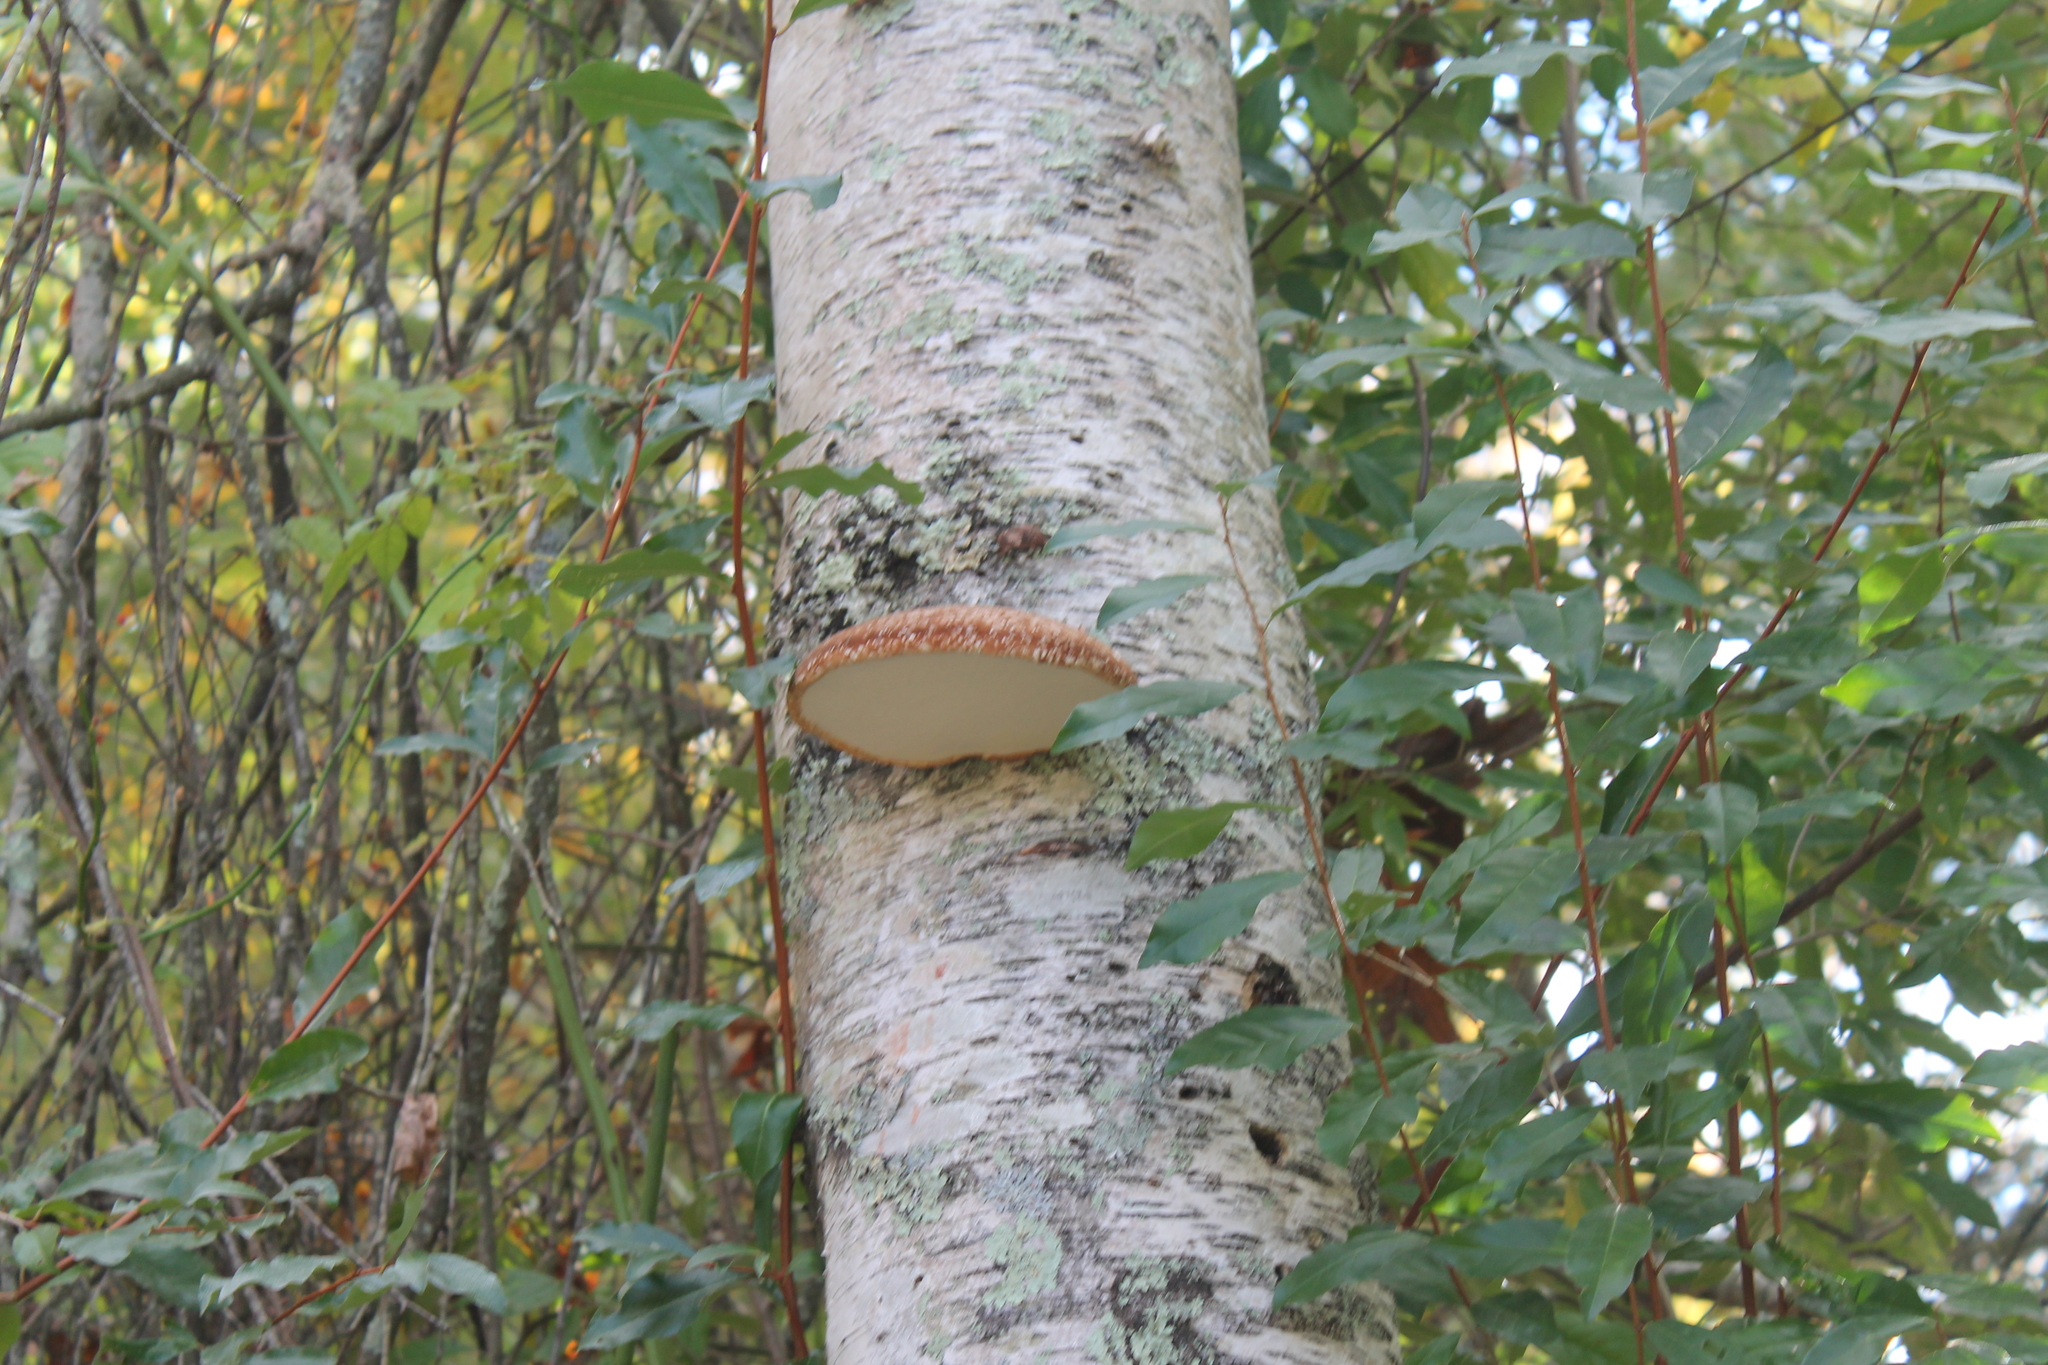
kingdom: Fungi
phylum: Basidiomycota
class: Agaricomycetes
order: Polyporales
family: Fomitopsidaceae
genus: Fomitopsis
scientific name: Fomitopsis betulina
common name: Birch polypore
